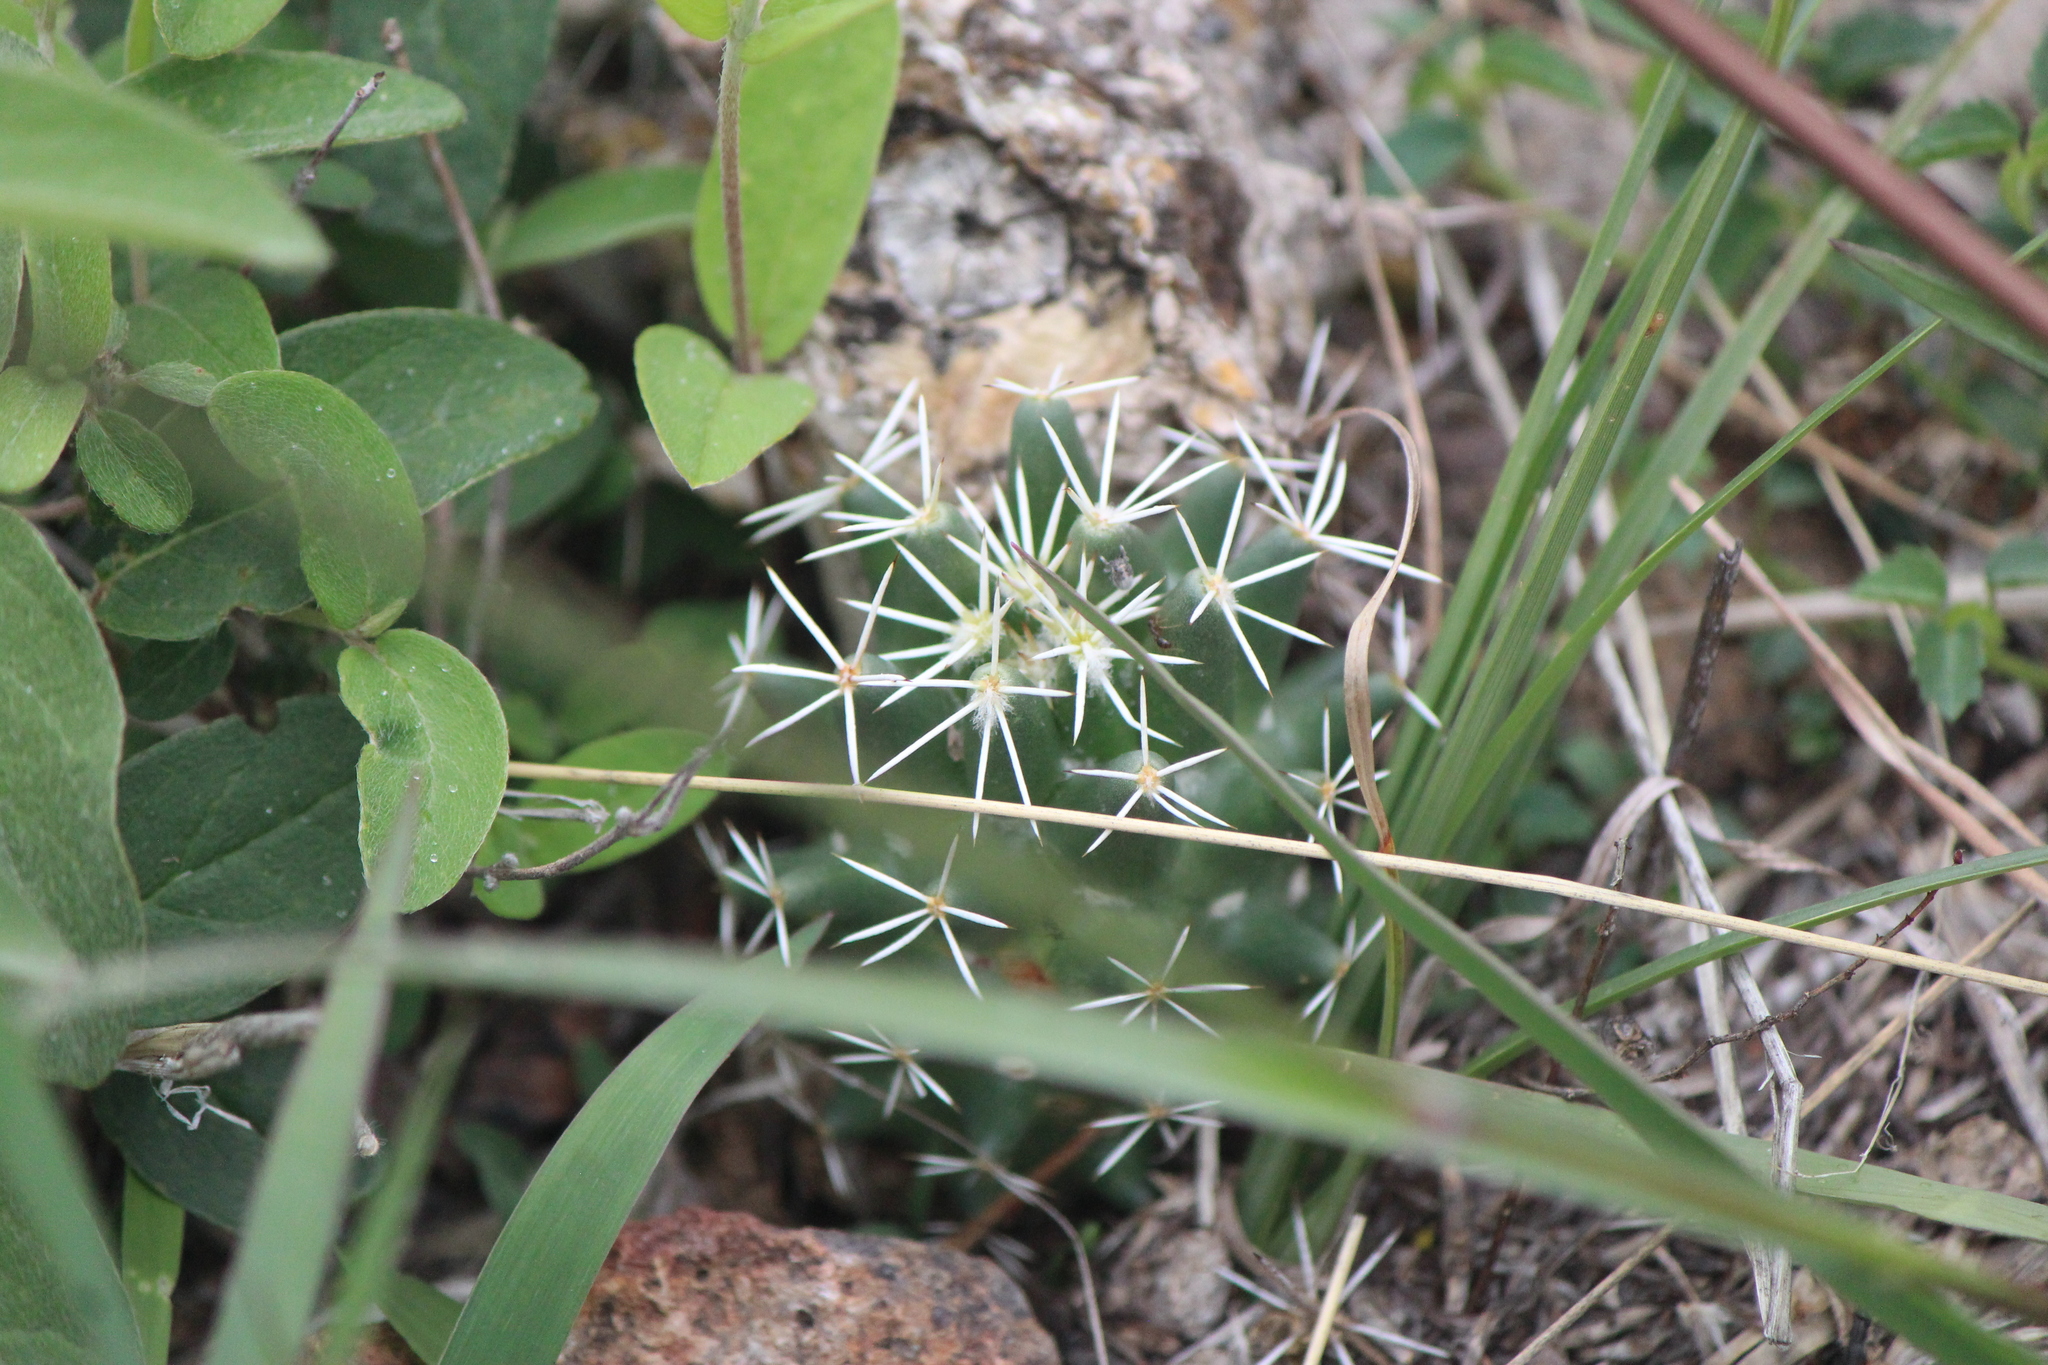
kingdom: Plantae
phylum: Tracheophyta
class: Magnoliopsida
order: Caryophyllales
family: Cactaceae
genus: Coryphantha
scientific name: Coryphantha octacantha
